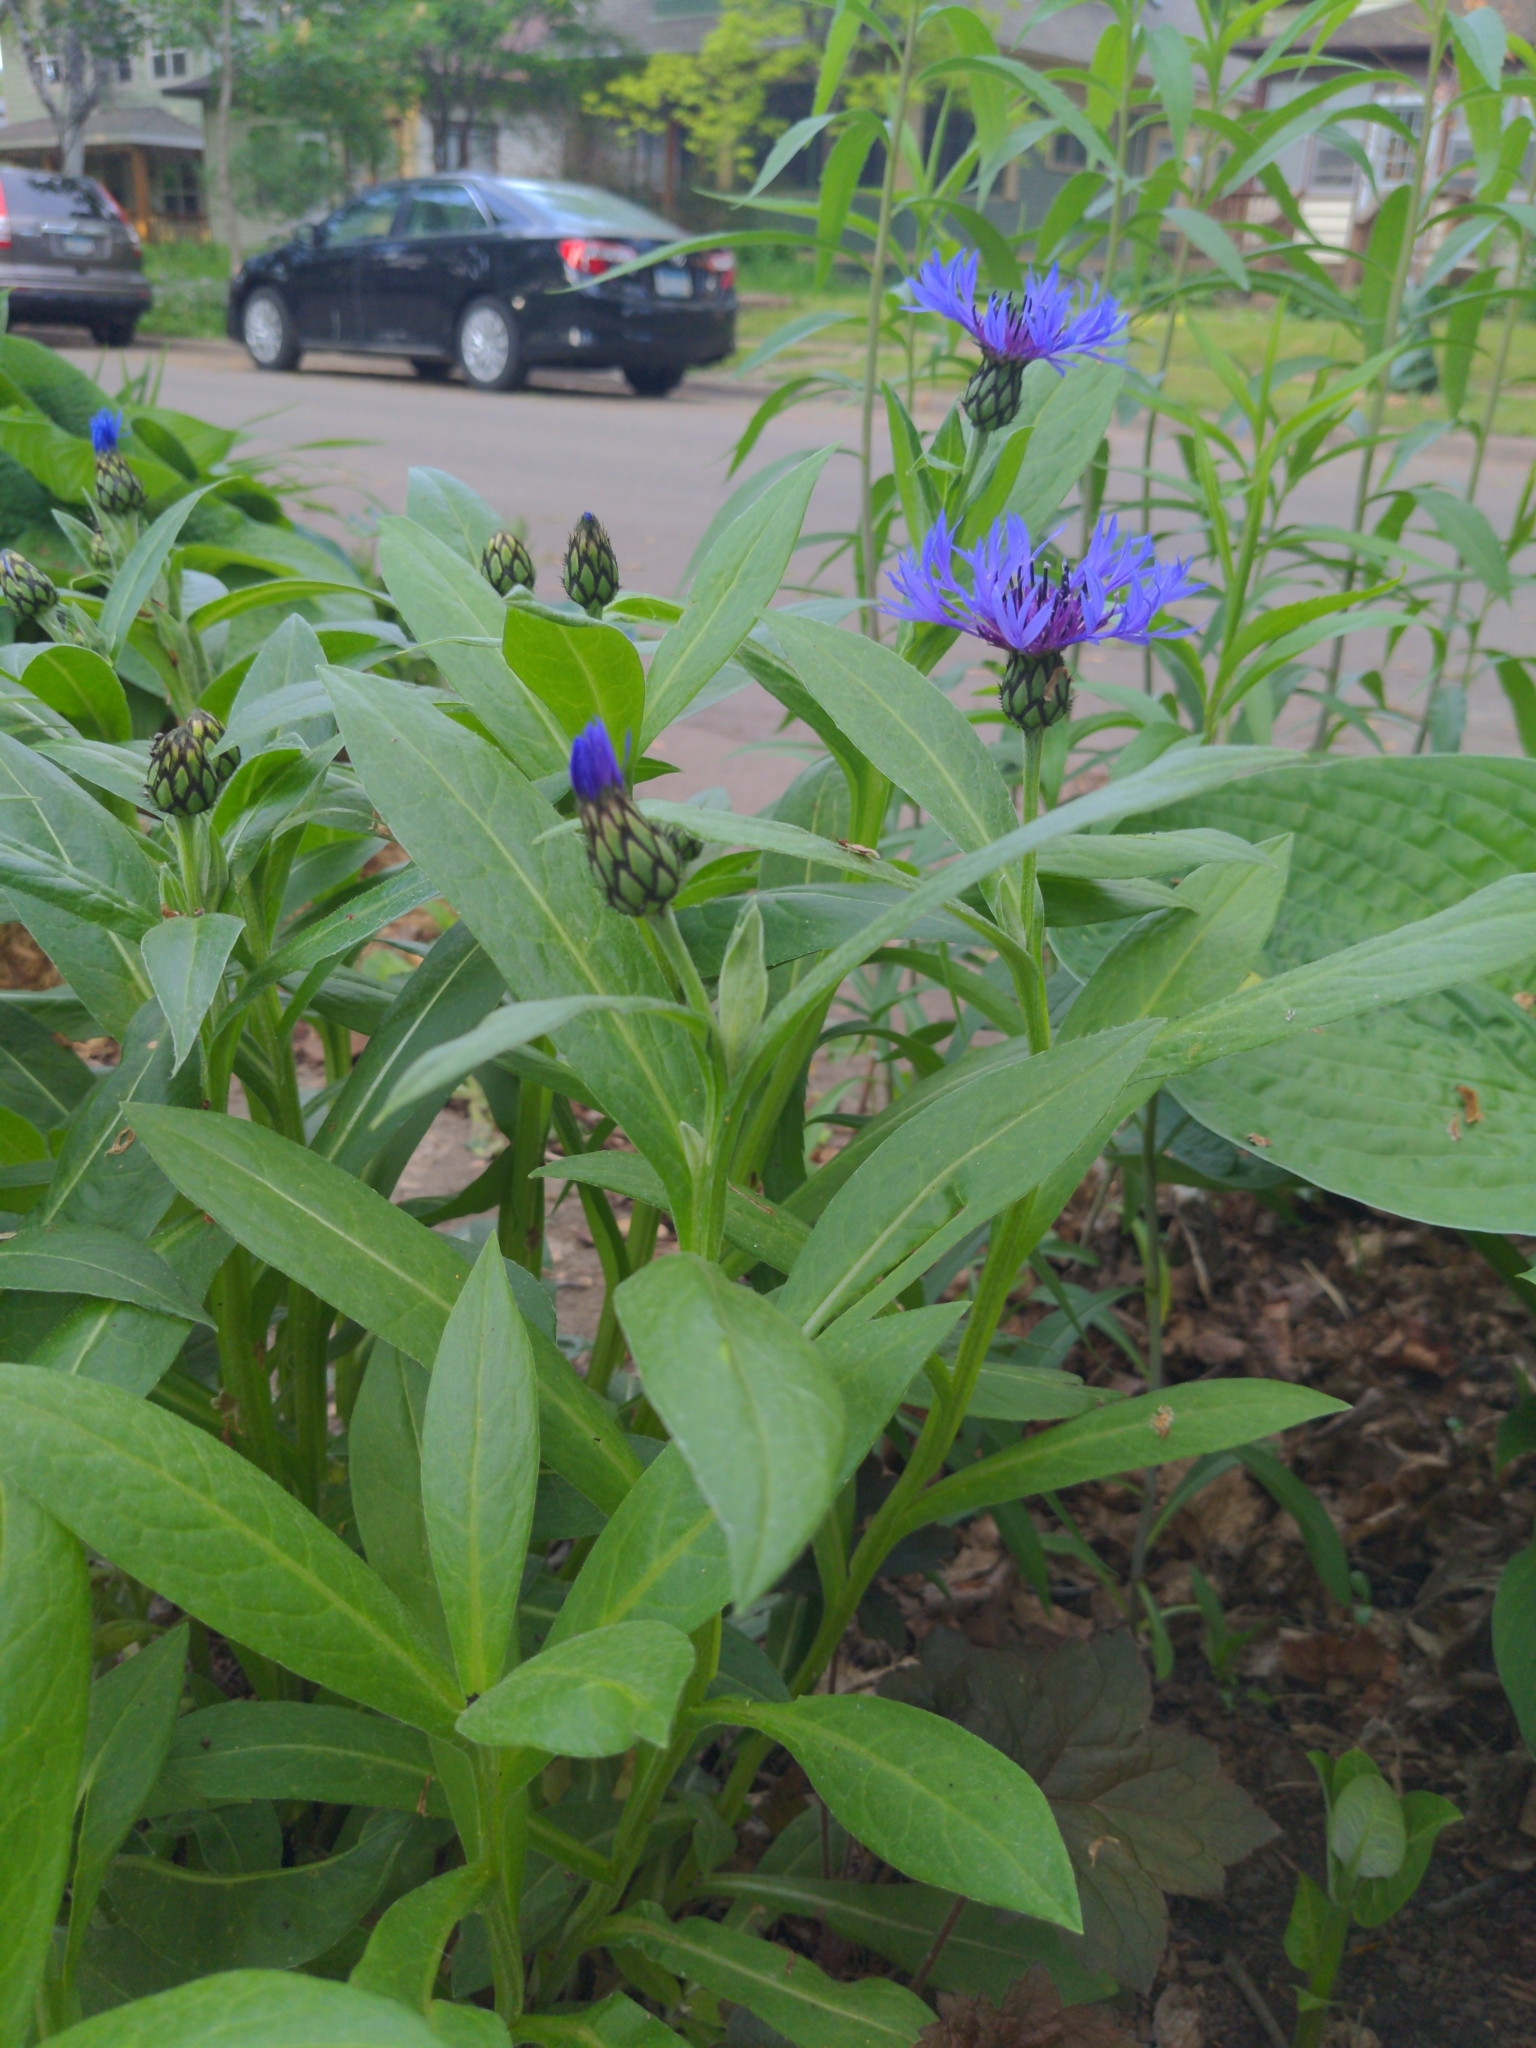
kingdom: Plantae
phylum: Tracheophyta
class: Magnoliopsida
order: Asterales
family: Asteraceae
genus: Centaurea
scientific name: Centaurea montana
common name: Perennial cornflower
